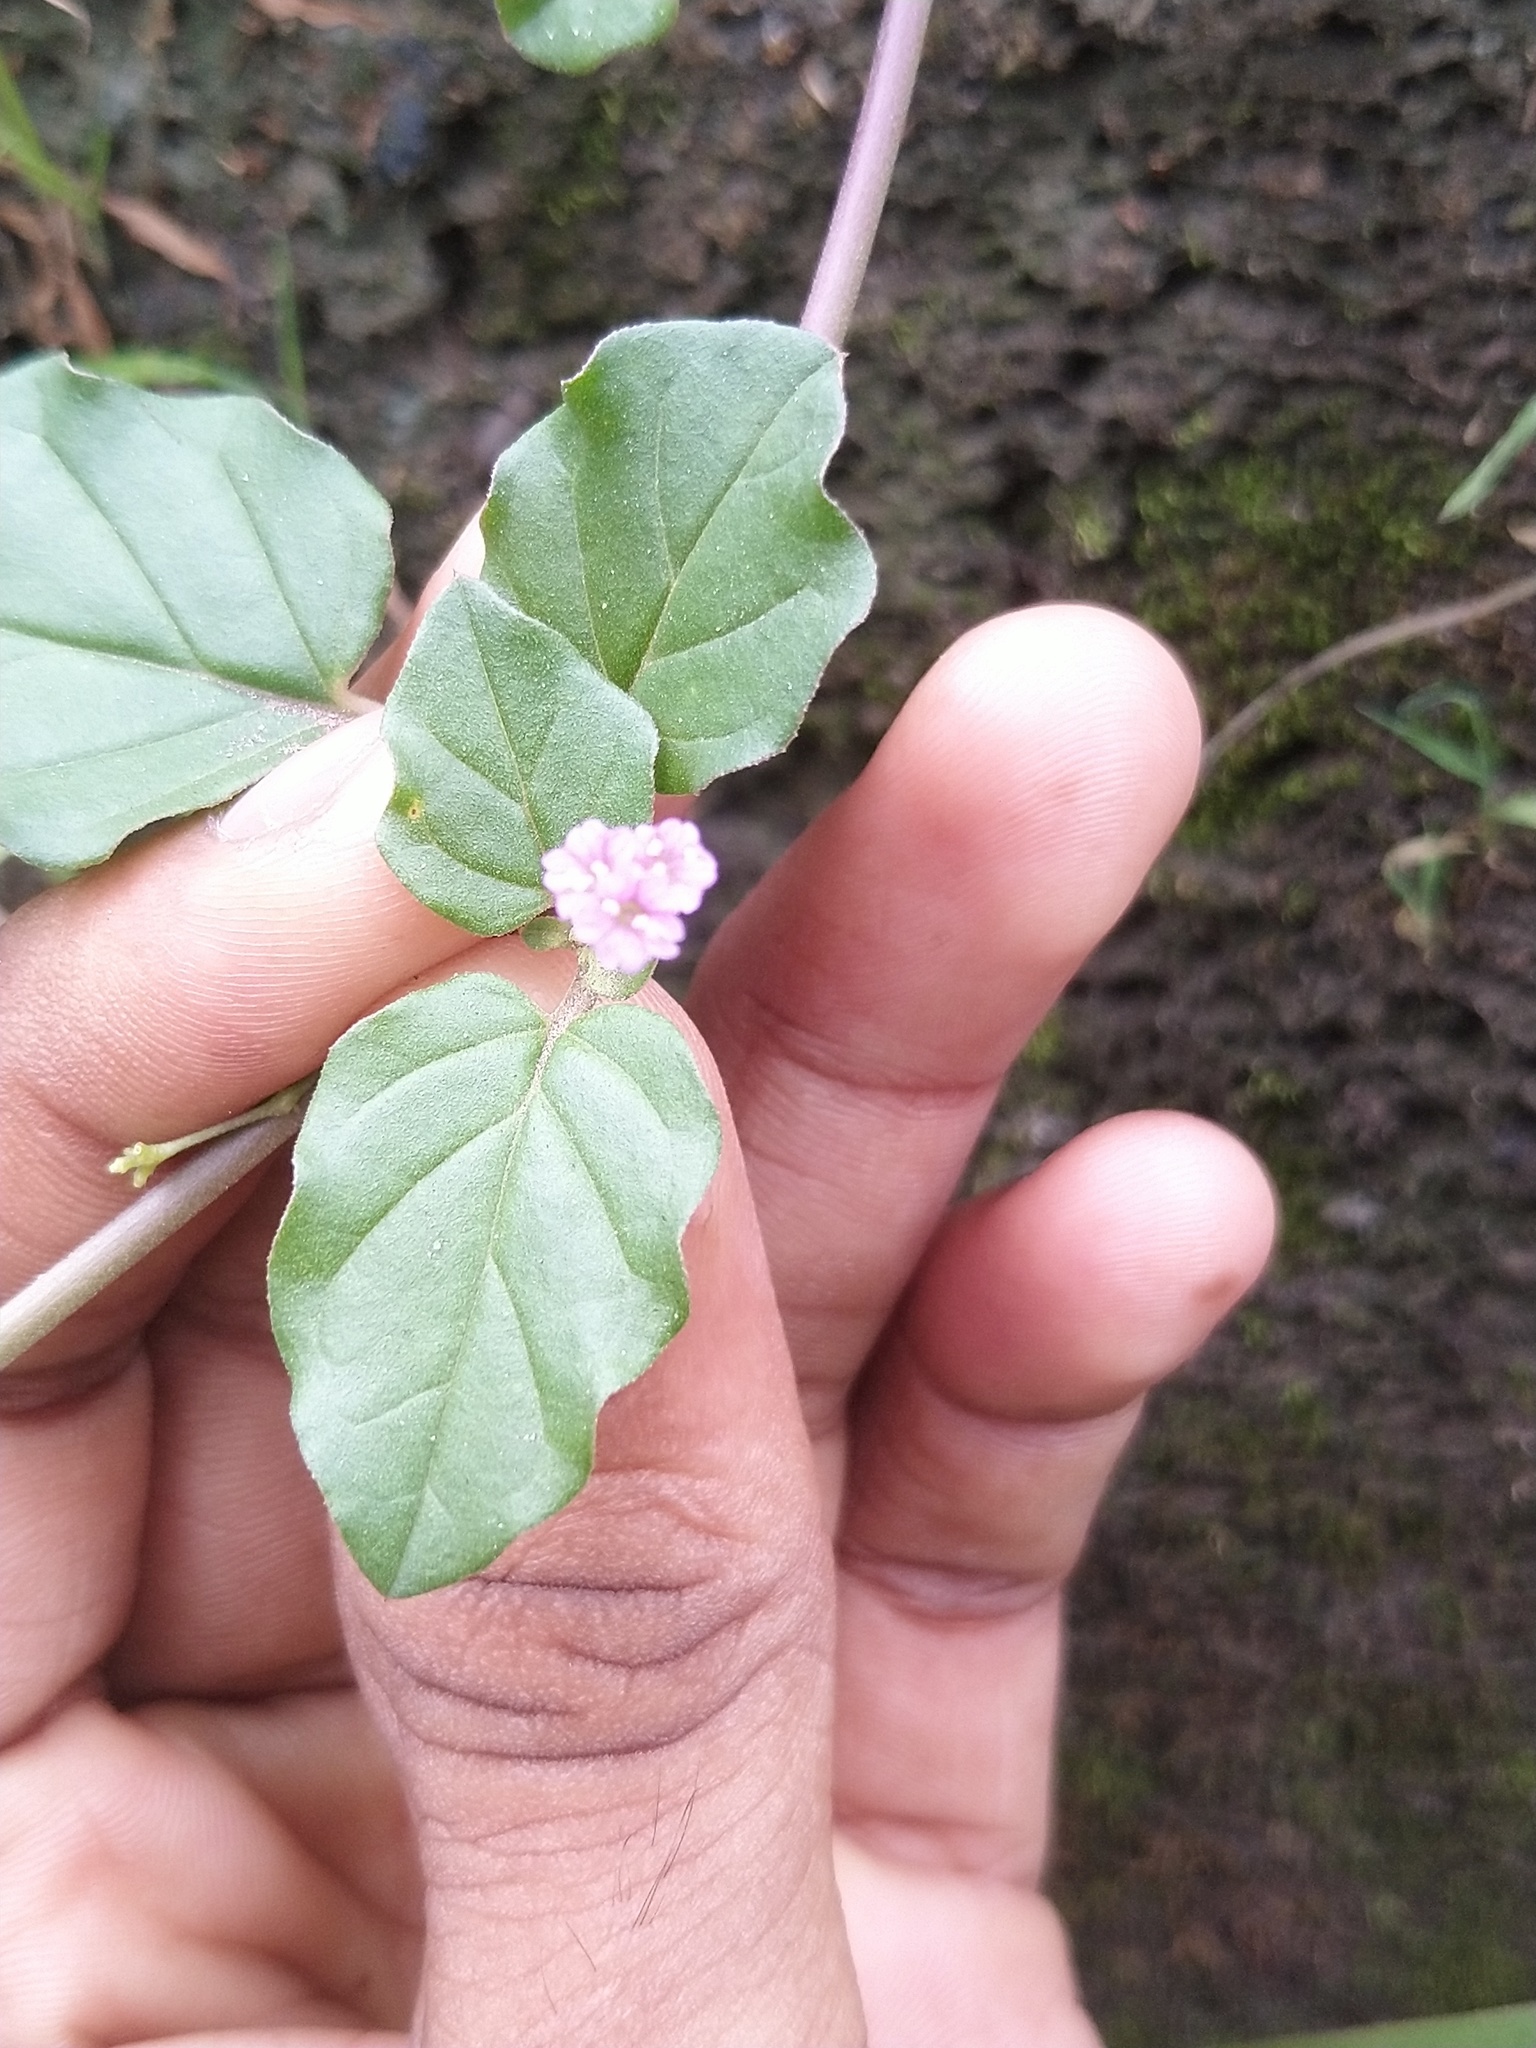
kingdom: Plantae
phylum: Tracheophyta
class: Magnoliopsida
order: Caryophyllales
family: Nyctaginaceae
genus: Boerhavia
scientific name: Boerhavia diffusa
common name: Red spiderling
